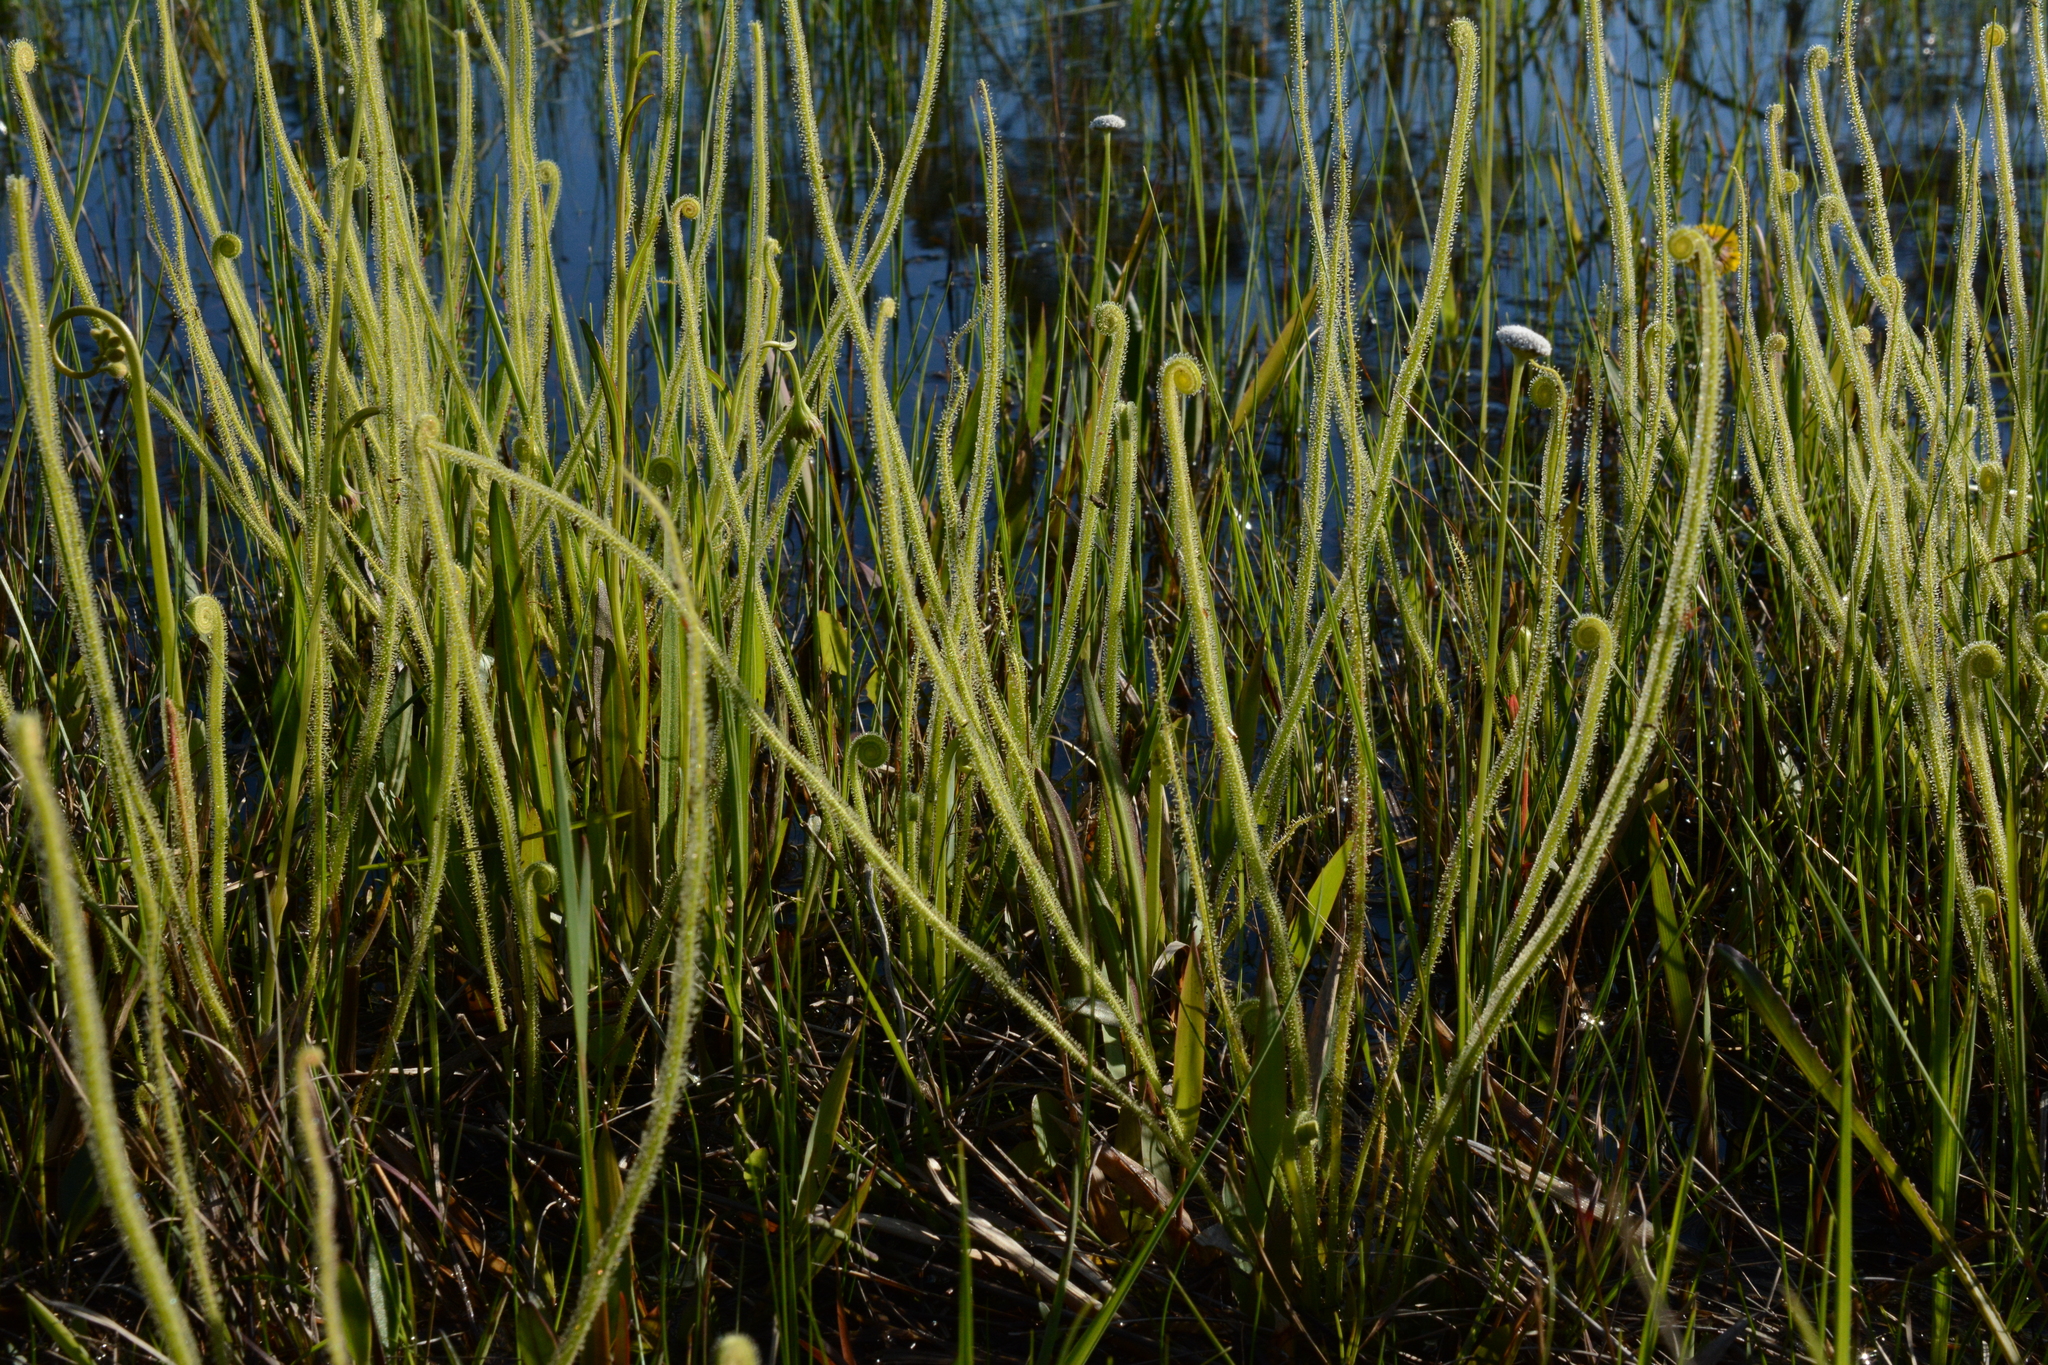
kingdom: Plantae
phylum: Tracheophyta
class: Magnoliopsida
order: Caryophyllales
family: Droseraceae
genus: Drosera
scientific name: Drosera filiformis
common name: Dew-thread
